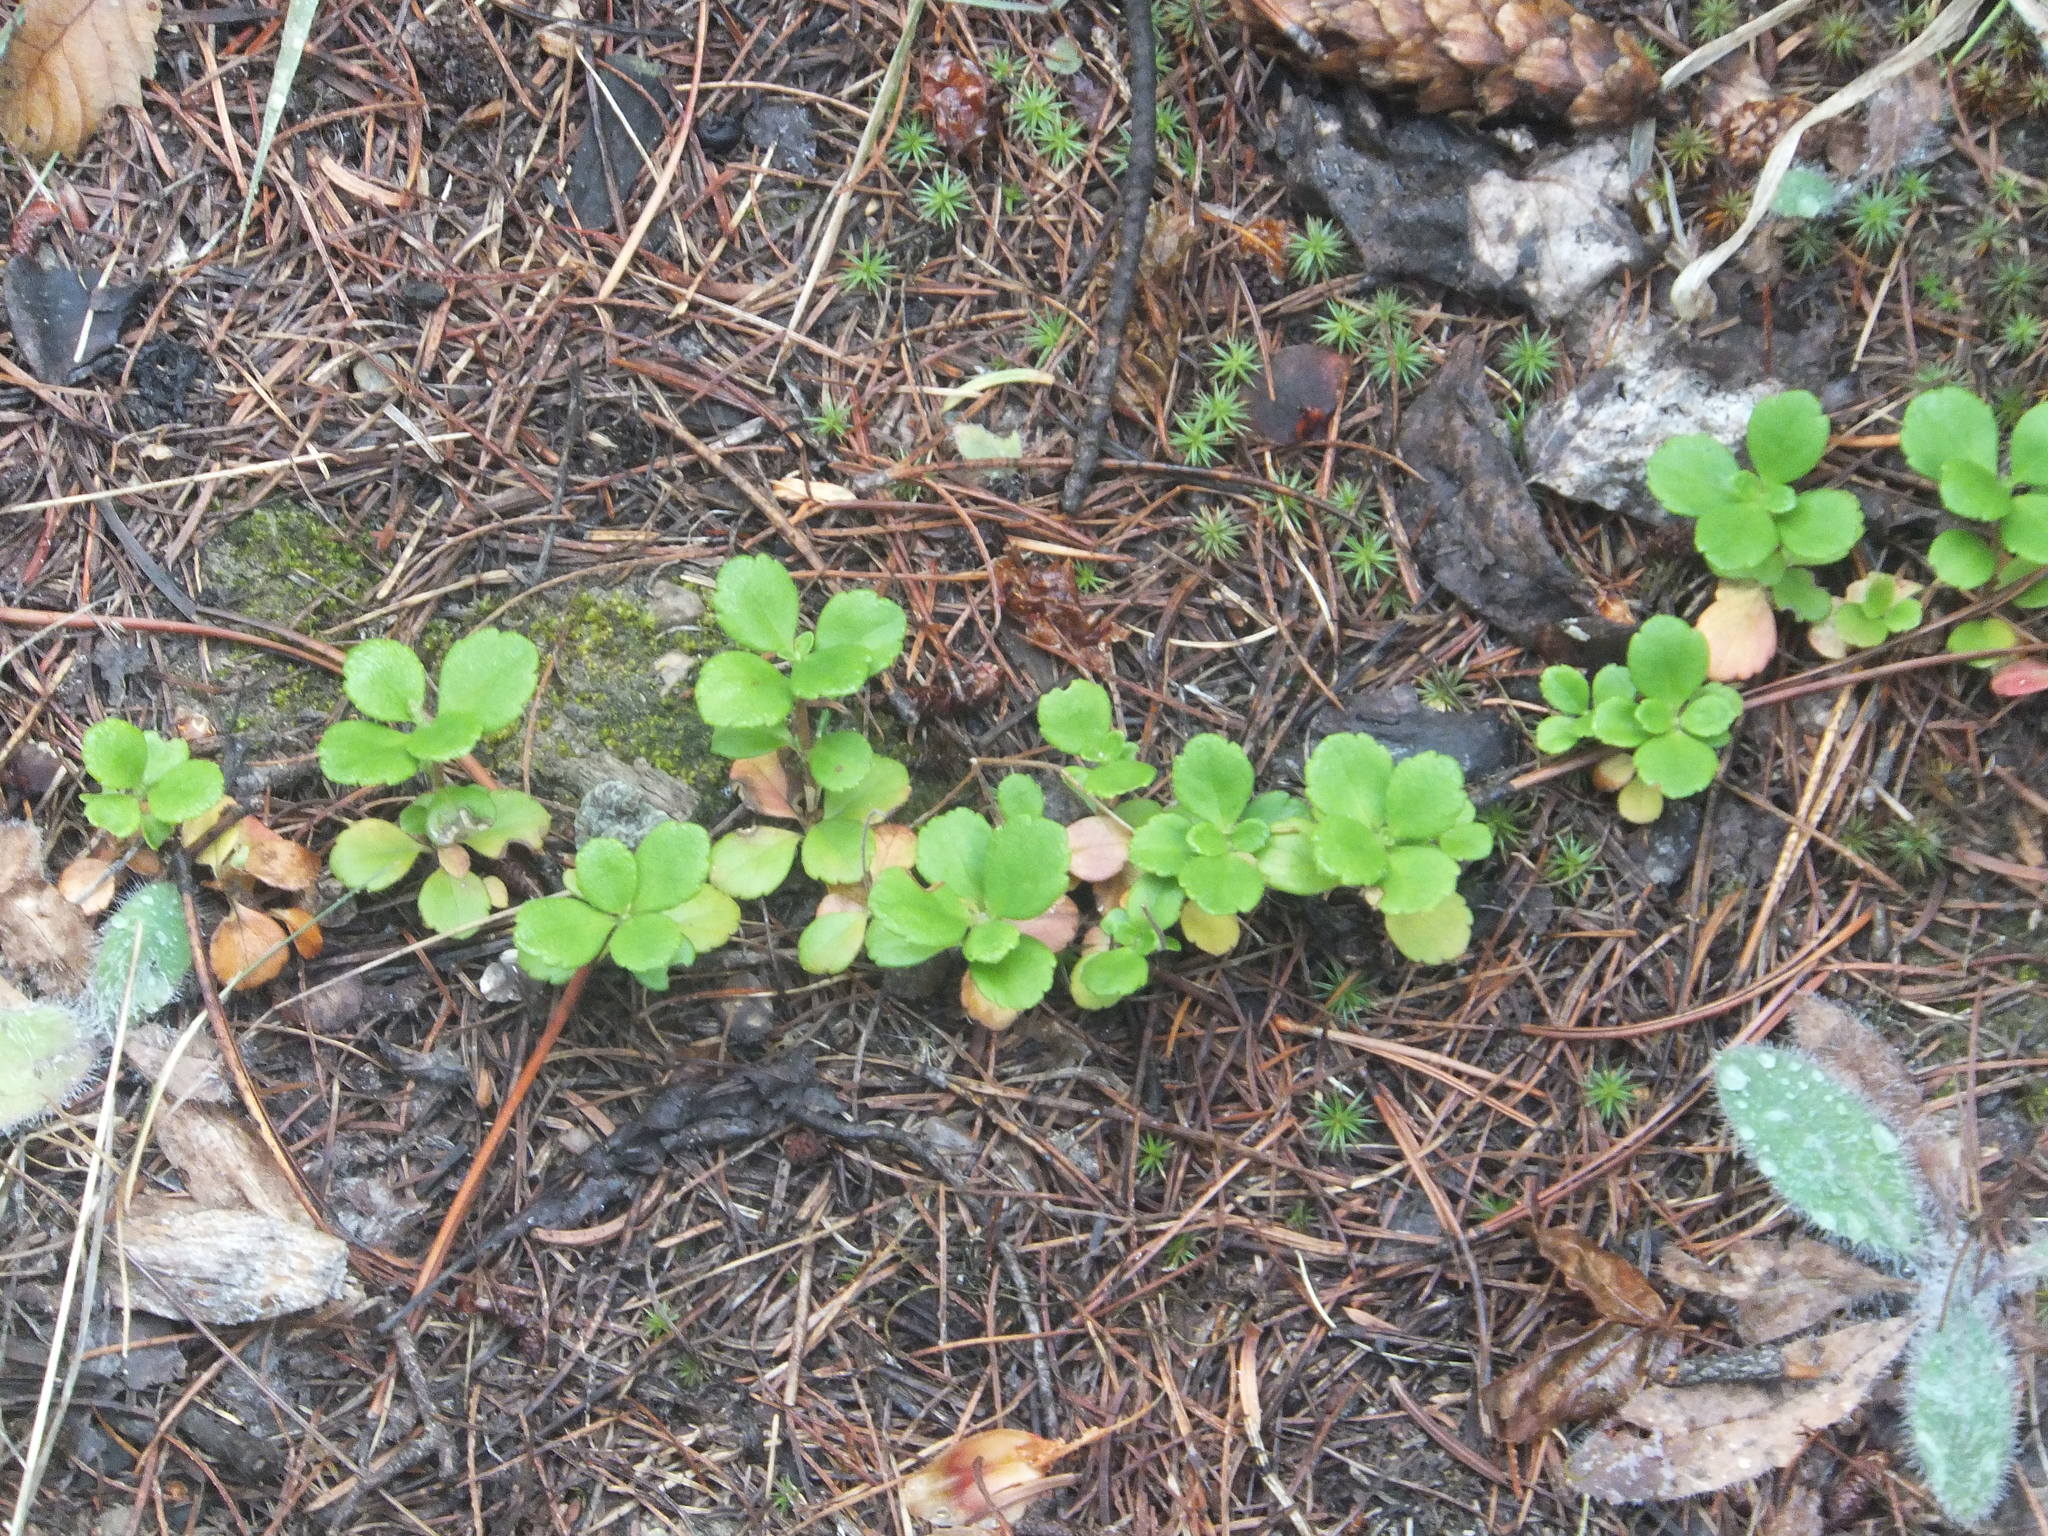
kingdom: Plantae
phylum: Tracheophyta
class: Magnoliopsida
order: Dipsacales
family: Caprifoliaceae
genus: Linnaea
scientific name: Linnaea borealis
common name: Twinflower
